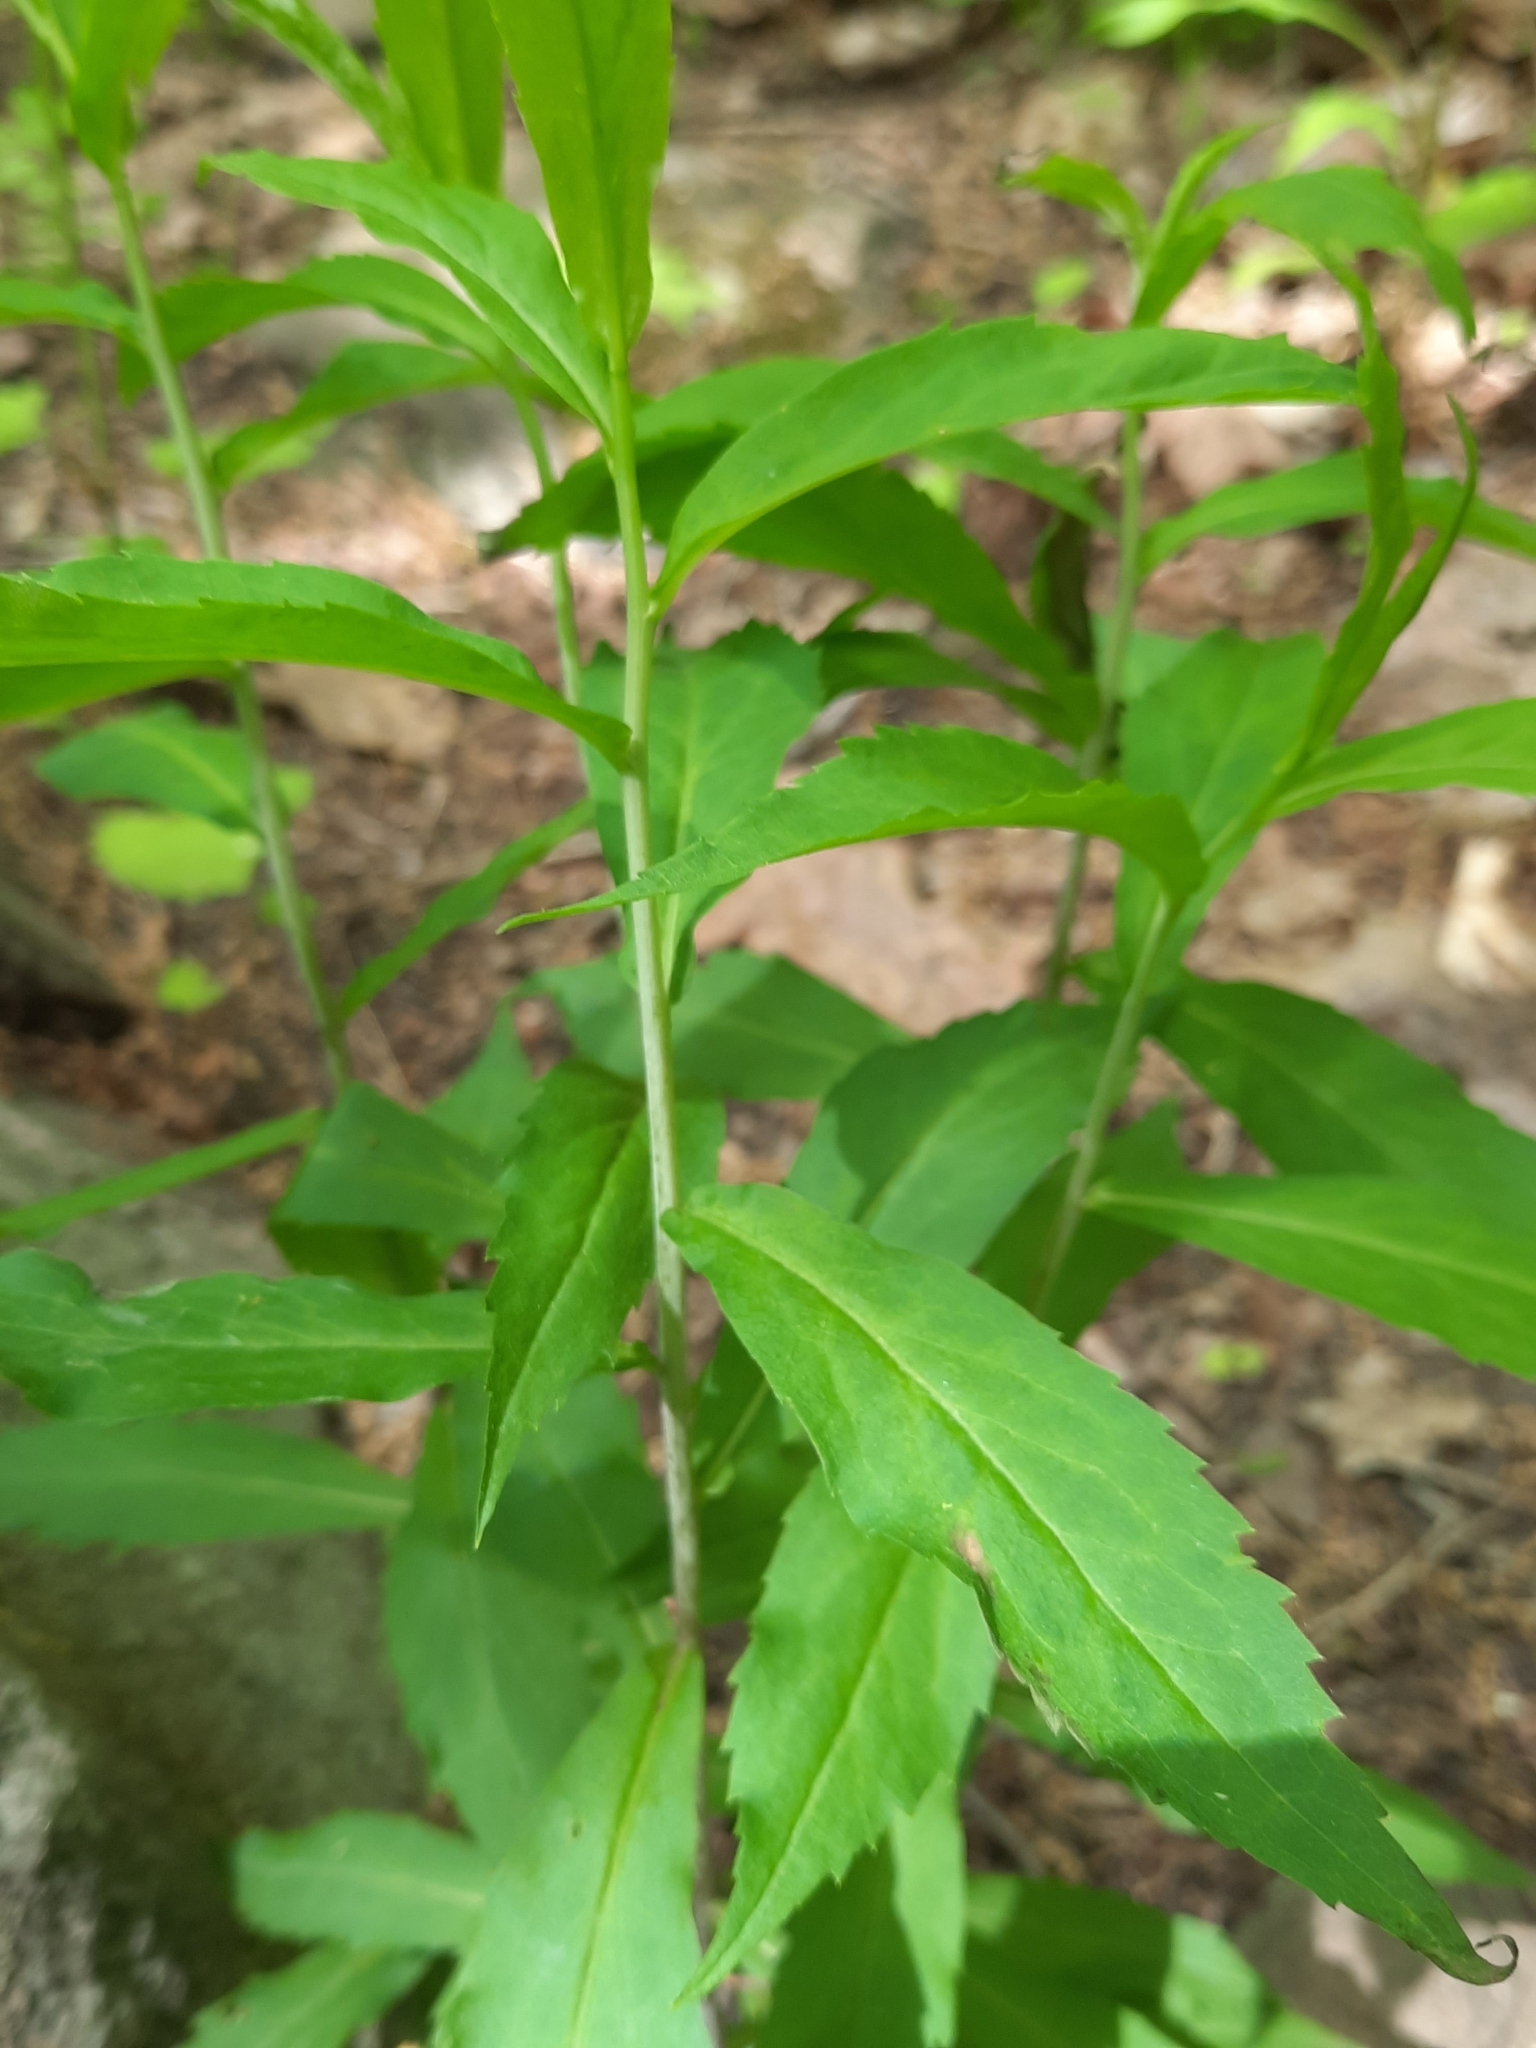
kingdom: Plantae
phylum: Tracheophyta
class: Magnoliopsida
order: Asterales
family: Asteraceae
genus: Solidago
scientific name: Solidago caesia
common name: Woodland goldenrod
